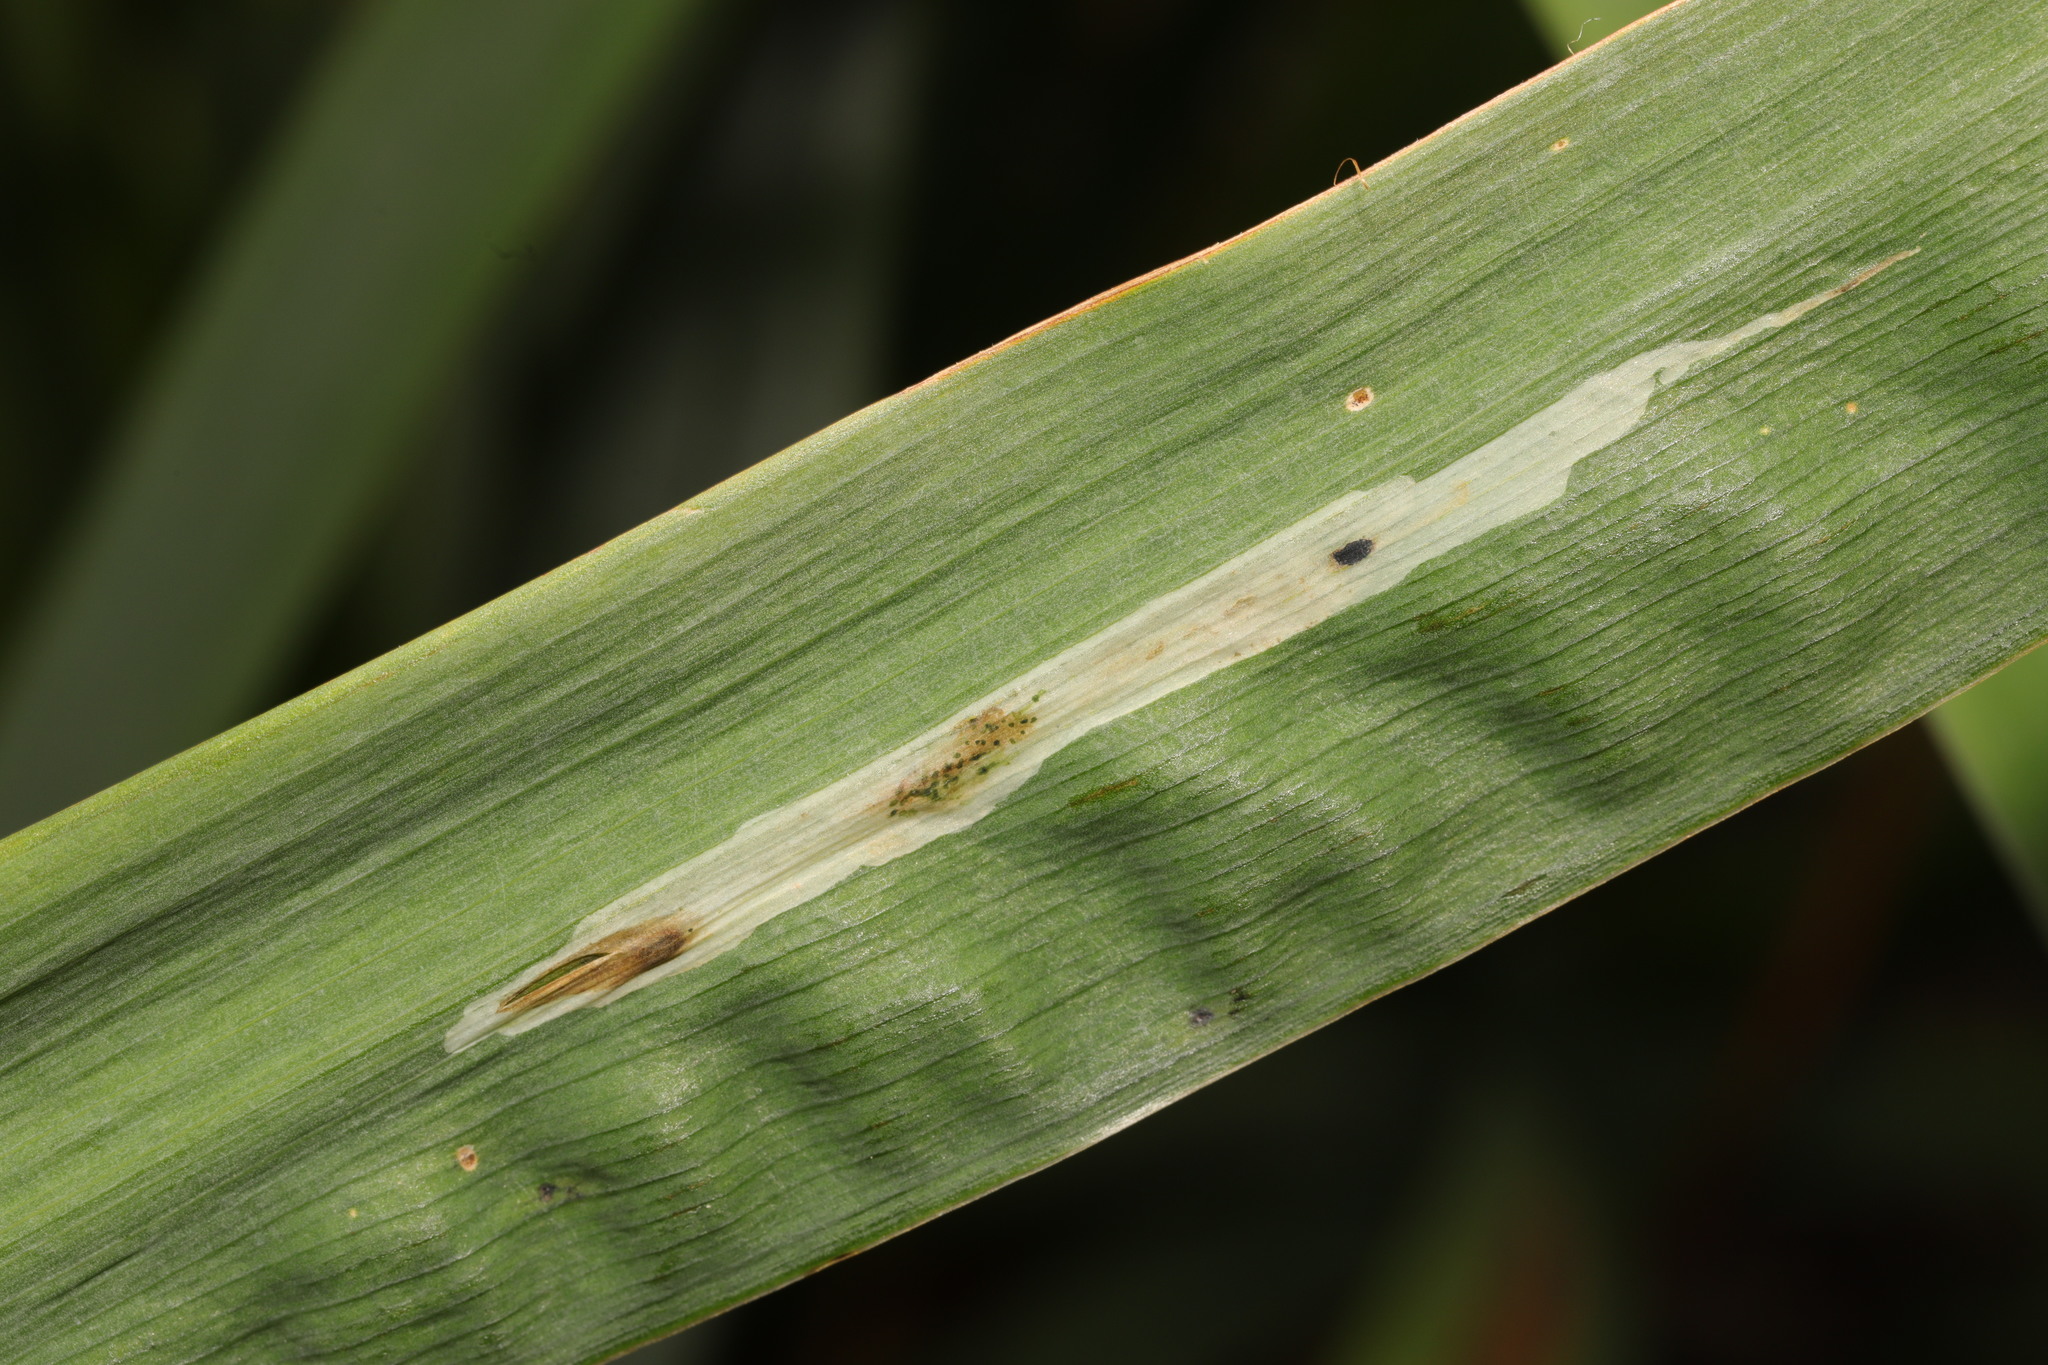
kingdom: Animalia
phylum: Arthropoda
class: Insecta
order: Diptera
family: Agromyzidae
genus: Cerodontha
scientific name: Cerodontha ircos
